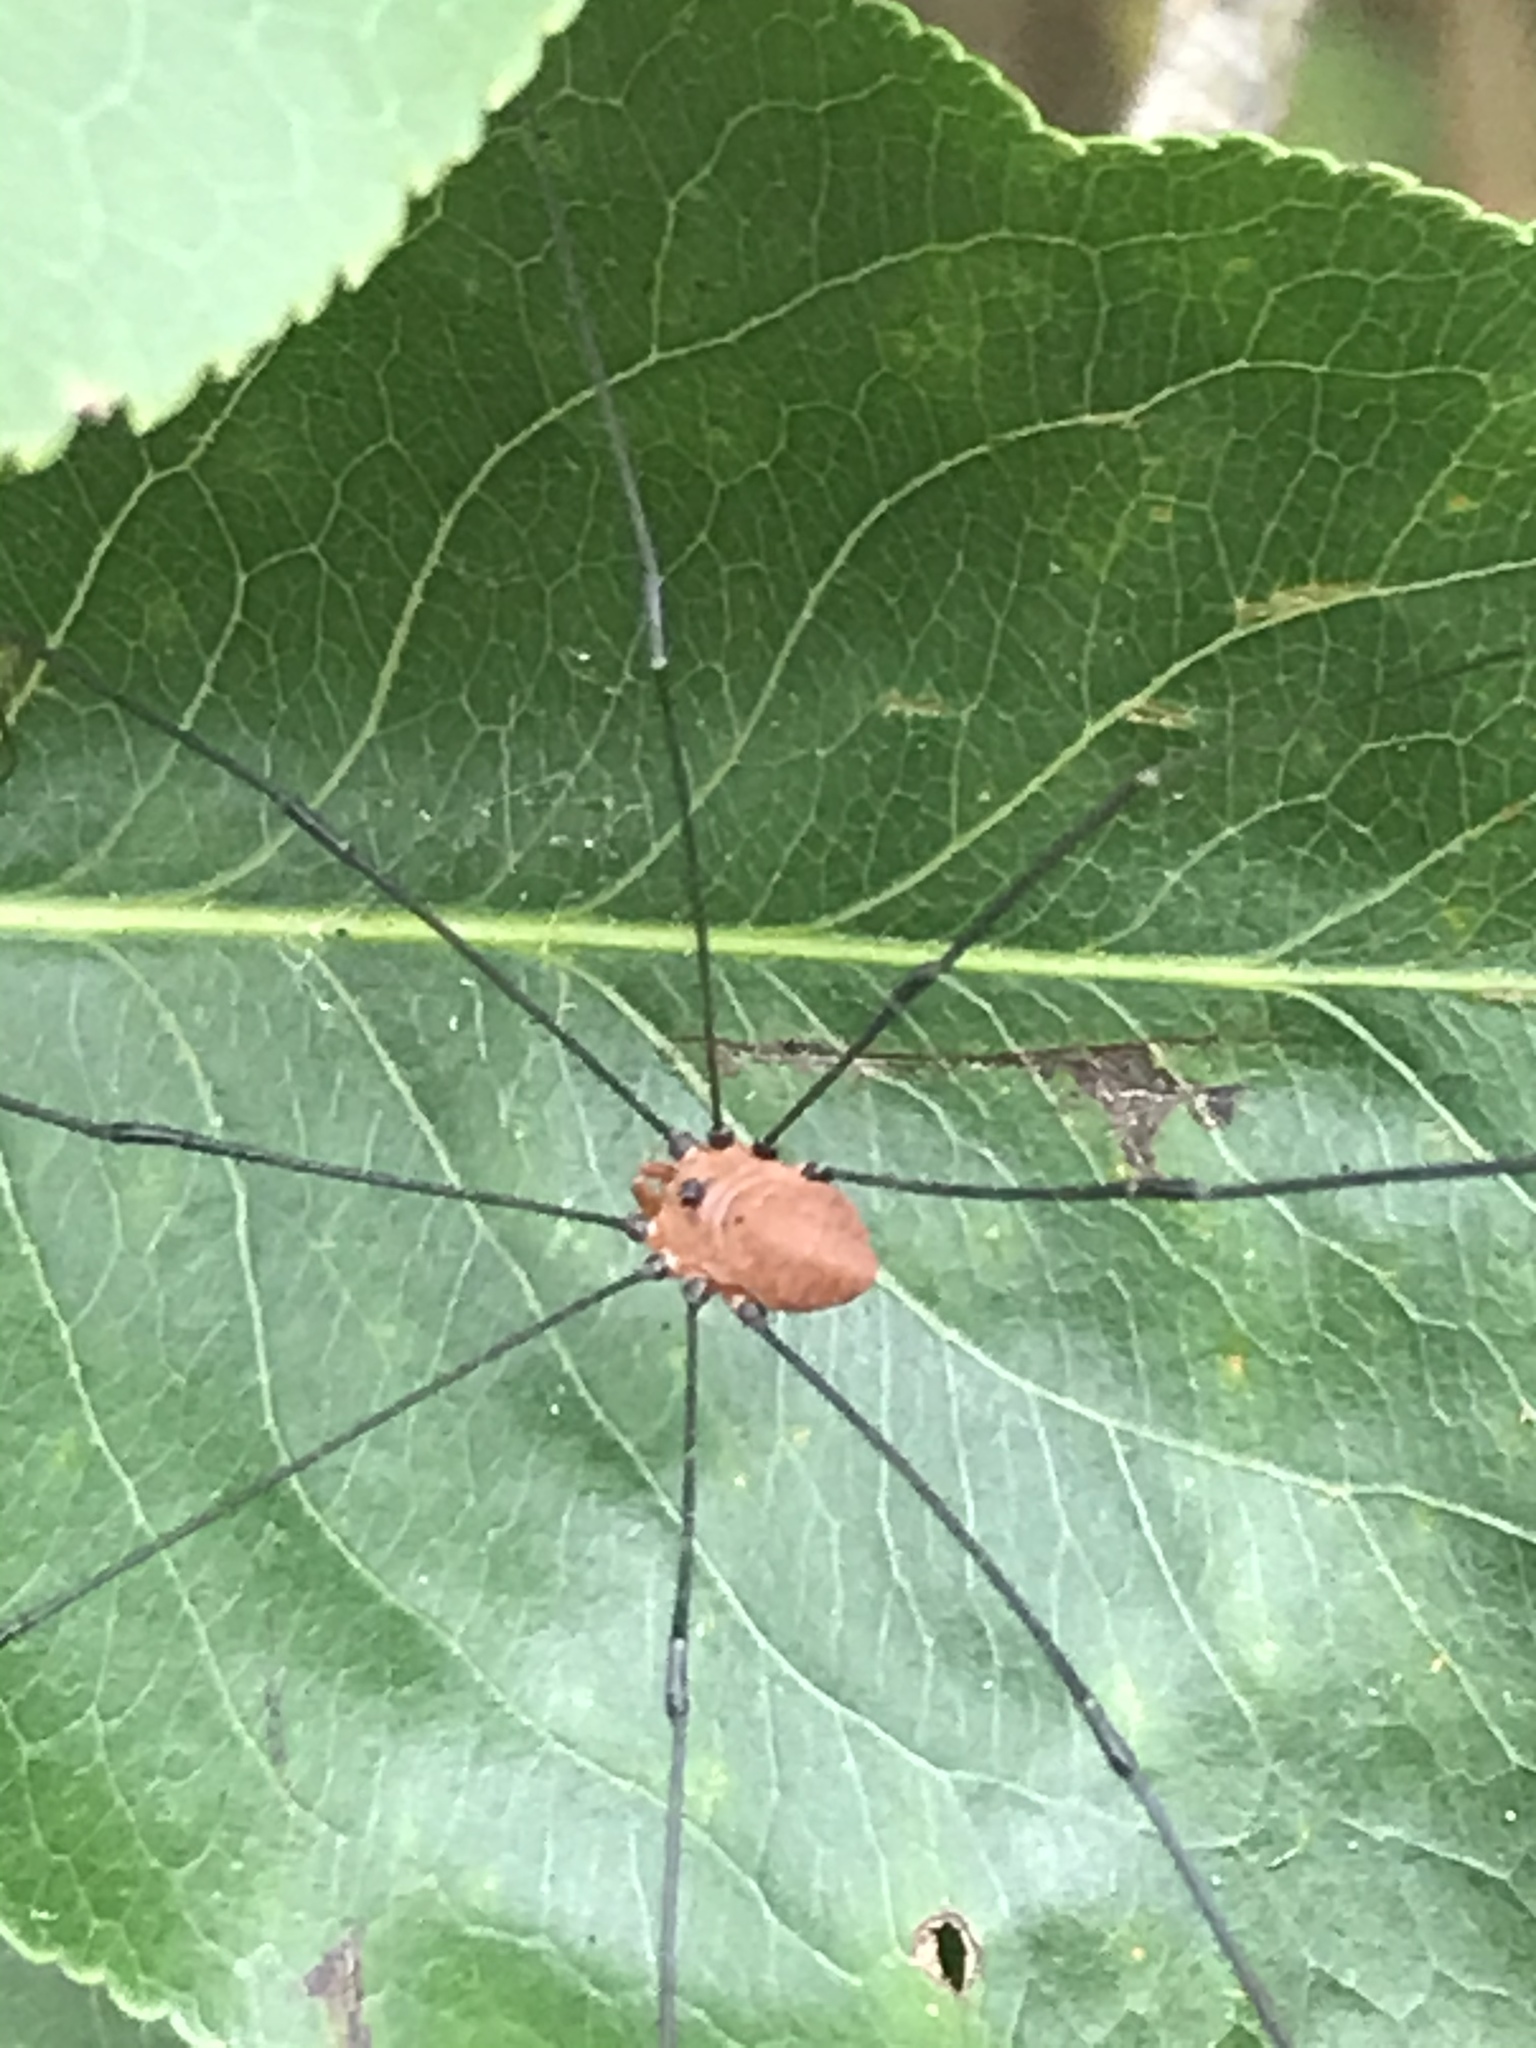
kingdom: Animalia
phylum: Arthropoda
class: Arachnida
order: Opiliones
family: Sclerosomatidae
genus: Leiobunum
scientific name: Leiobunum uxorium
